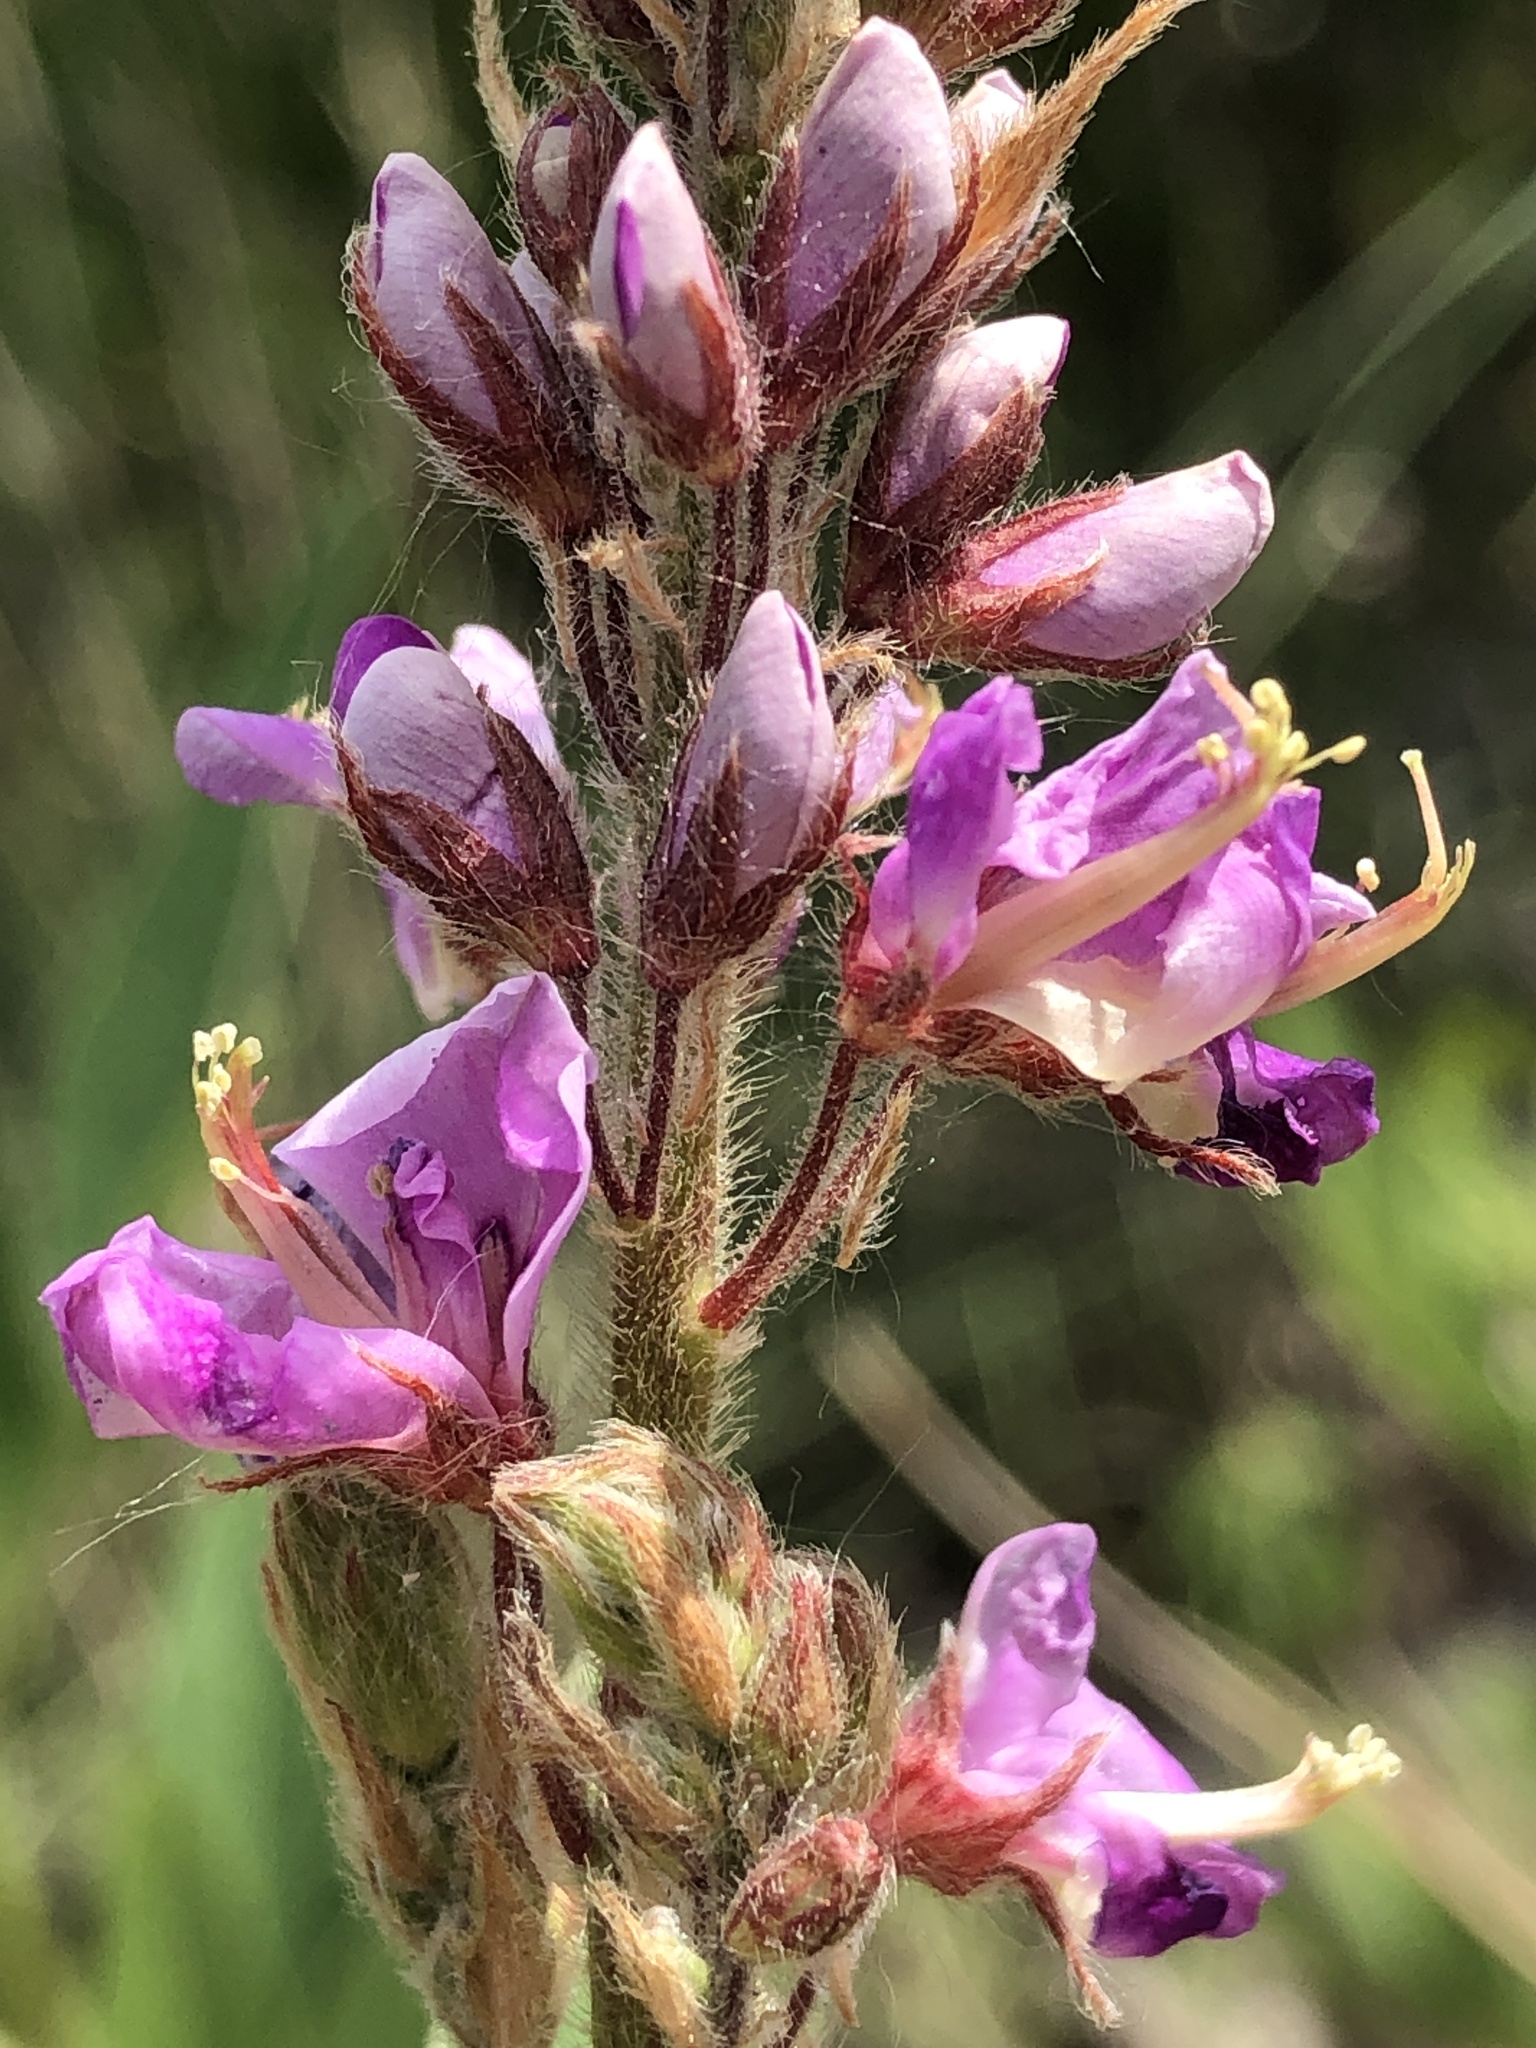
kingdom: Plantae
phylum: Tracheophyta
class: Magnoliopsida
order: Fabales
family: Fabaceae
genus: Desmodium
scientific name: Desmodium canadense
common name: Canada tick-trefoil
